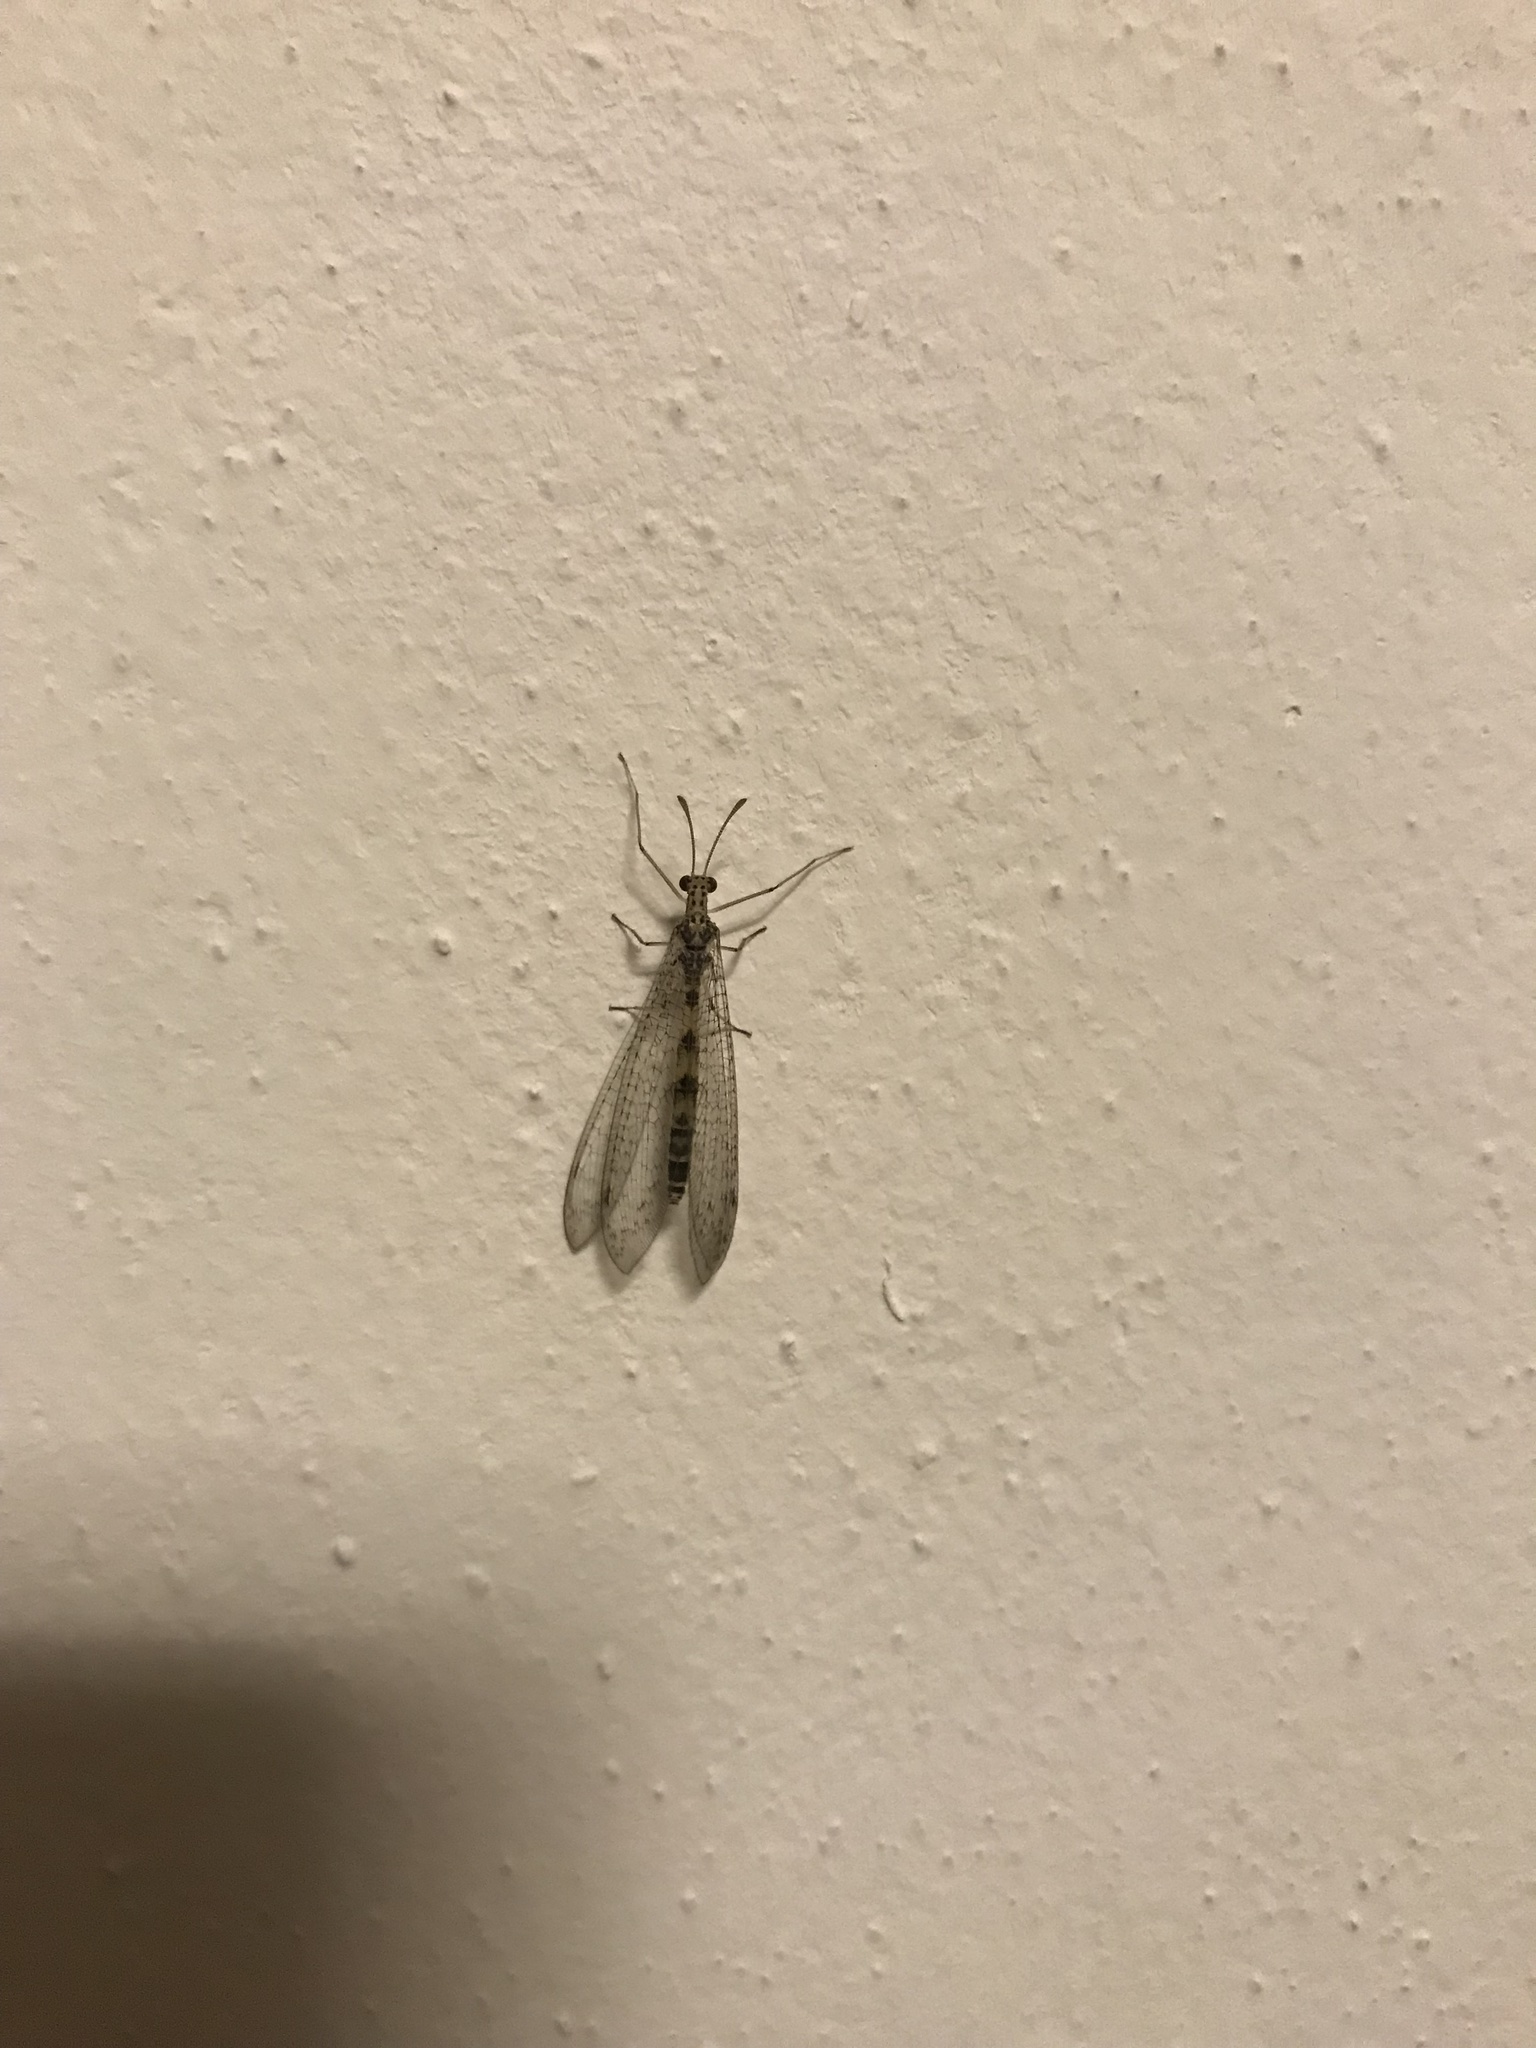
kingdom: Animalia
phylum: Arthropoda
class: Insecta
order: Neuroptera
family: Myrmeleontidae
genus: Gymnocnemia
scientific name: Gymnocnemia variegata
